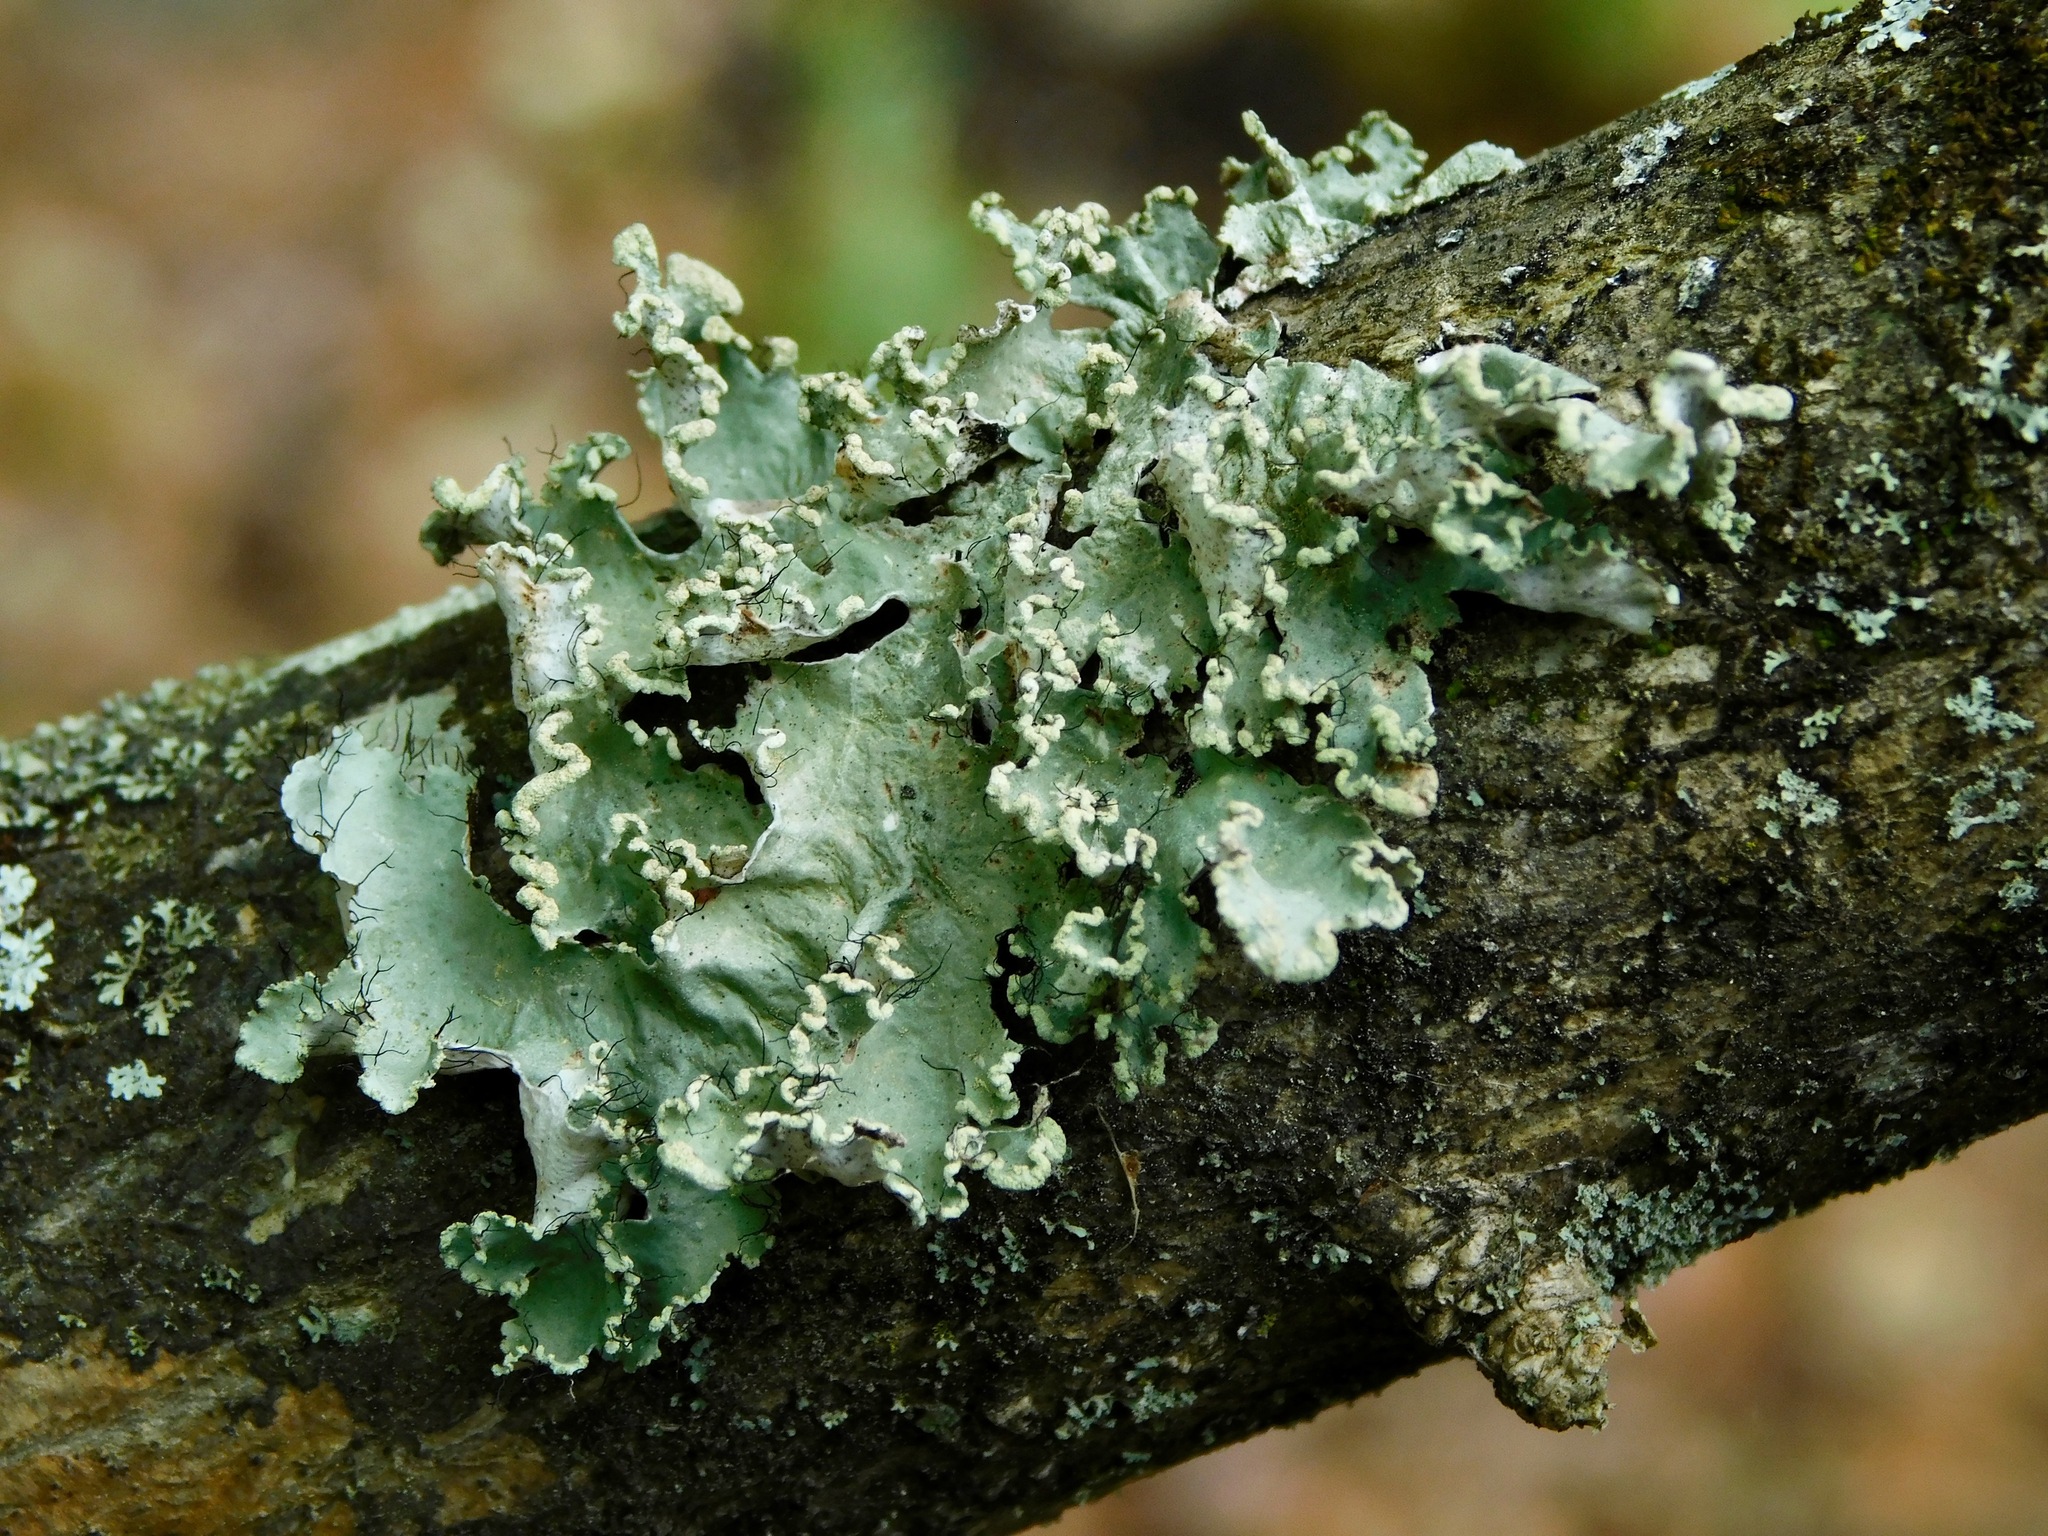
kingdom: Fungi
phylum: Ascomycota
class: Lecanoromycetes
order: Lecanorales
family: Parmeliaceae
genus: Parmotrema
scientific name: Parmotrema hypotropum
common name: Powdered ruffle lichen
